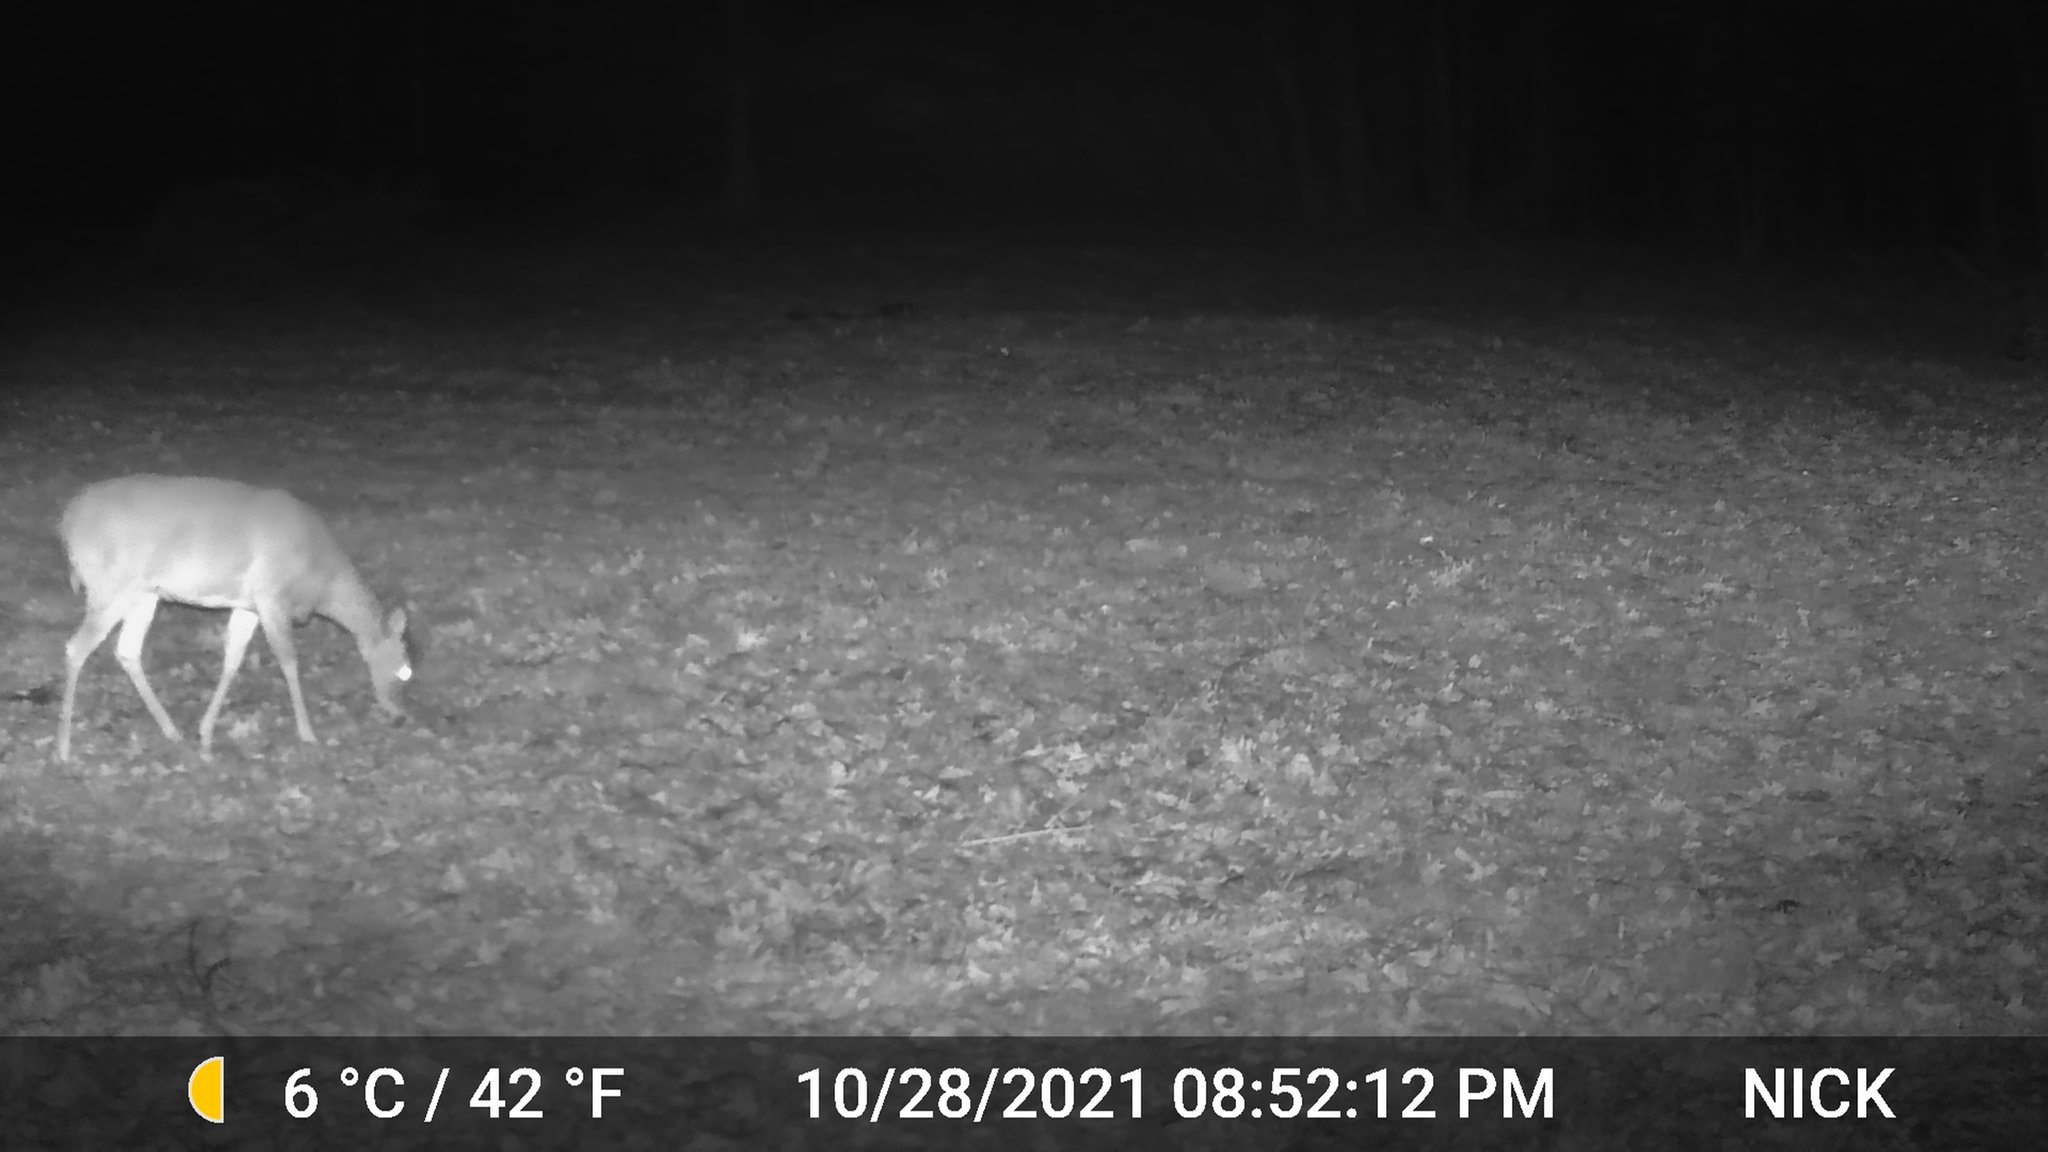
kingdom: Animalia
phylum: Chordata
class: Mammalia
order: Artiodactyla
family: Cervidae
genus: Odocoileus
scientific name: Odocoileus virginianus
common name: White-tailed deer
